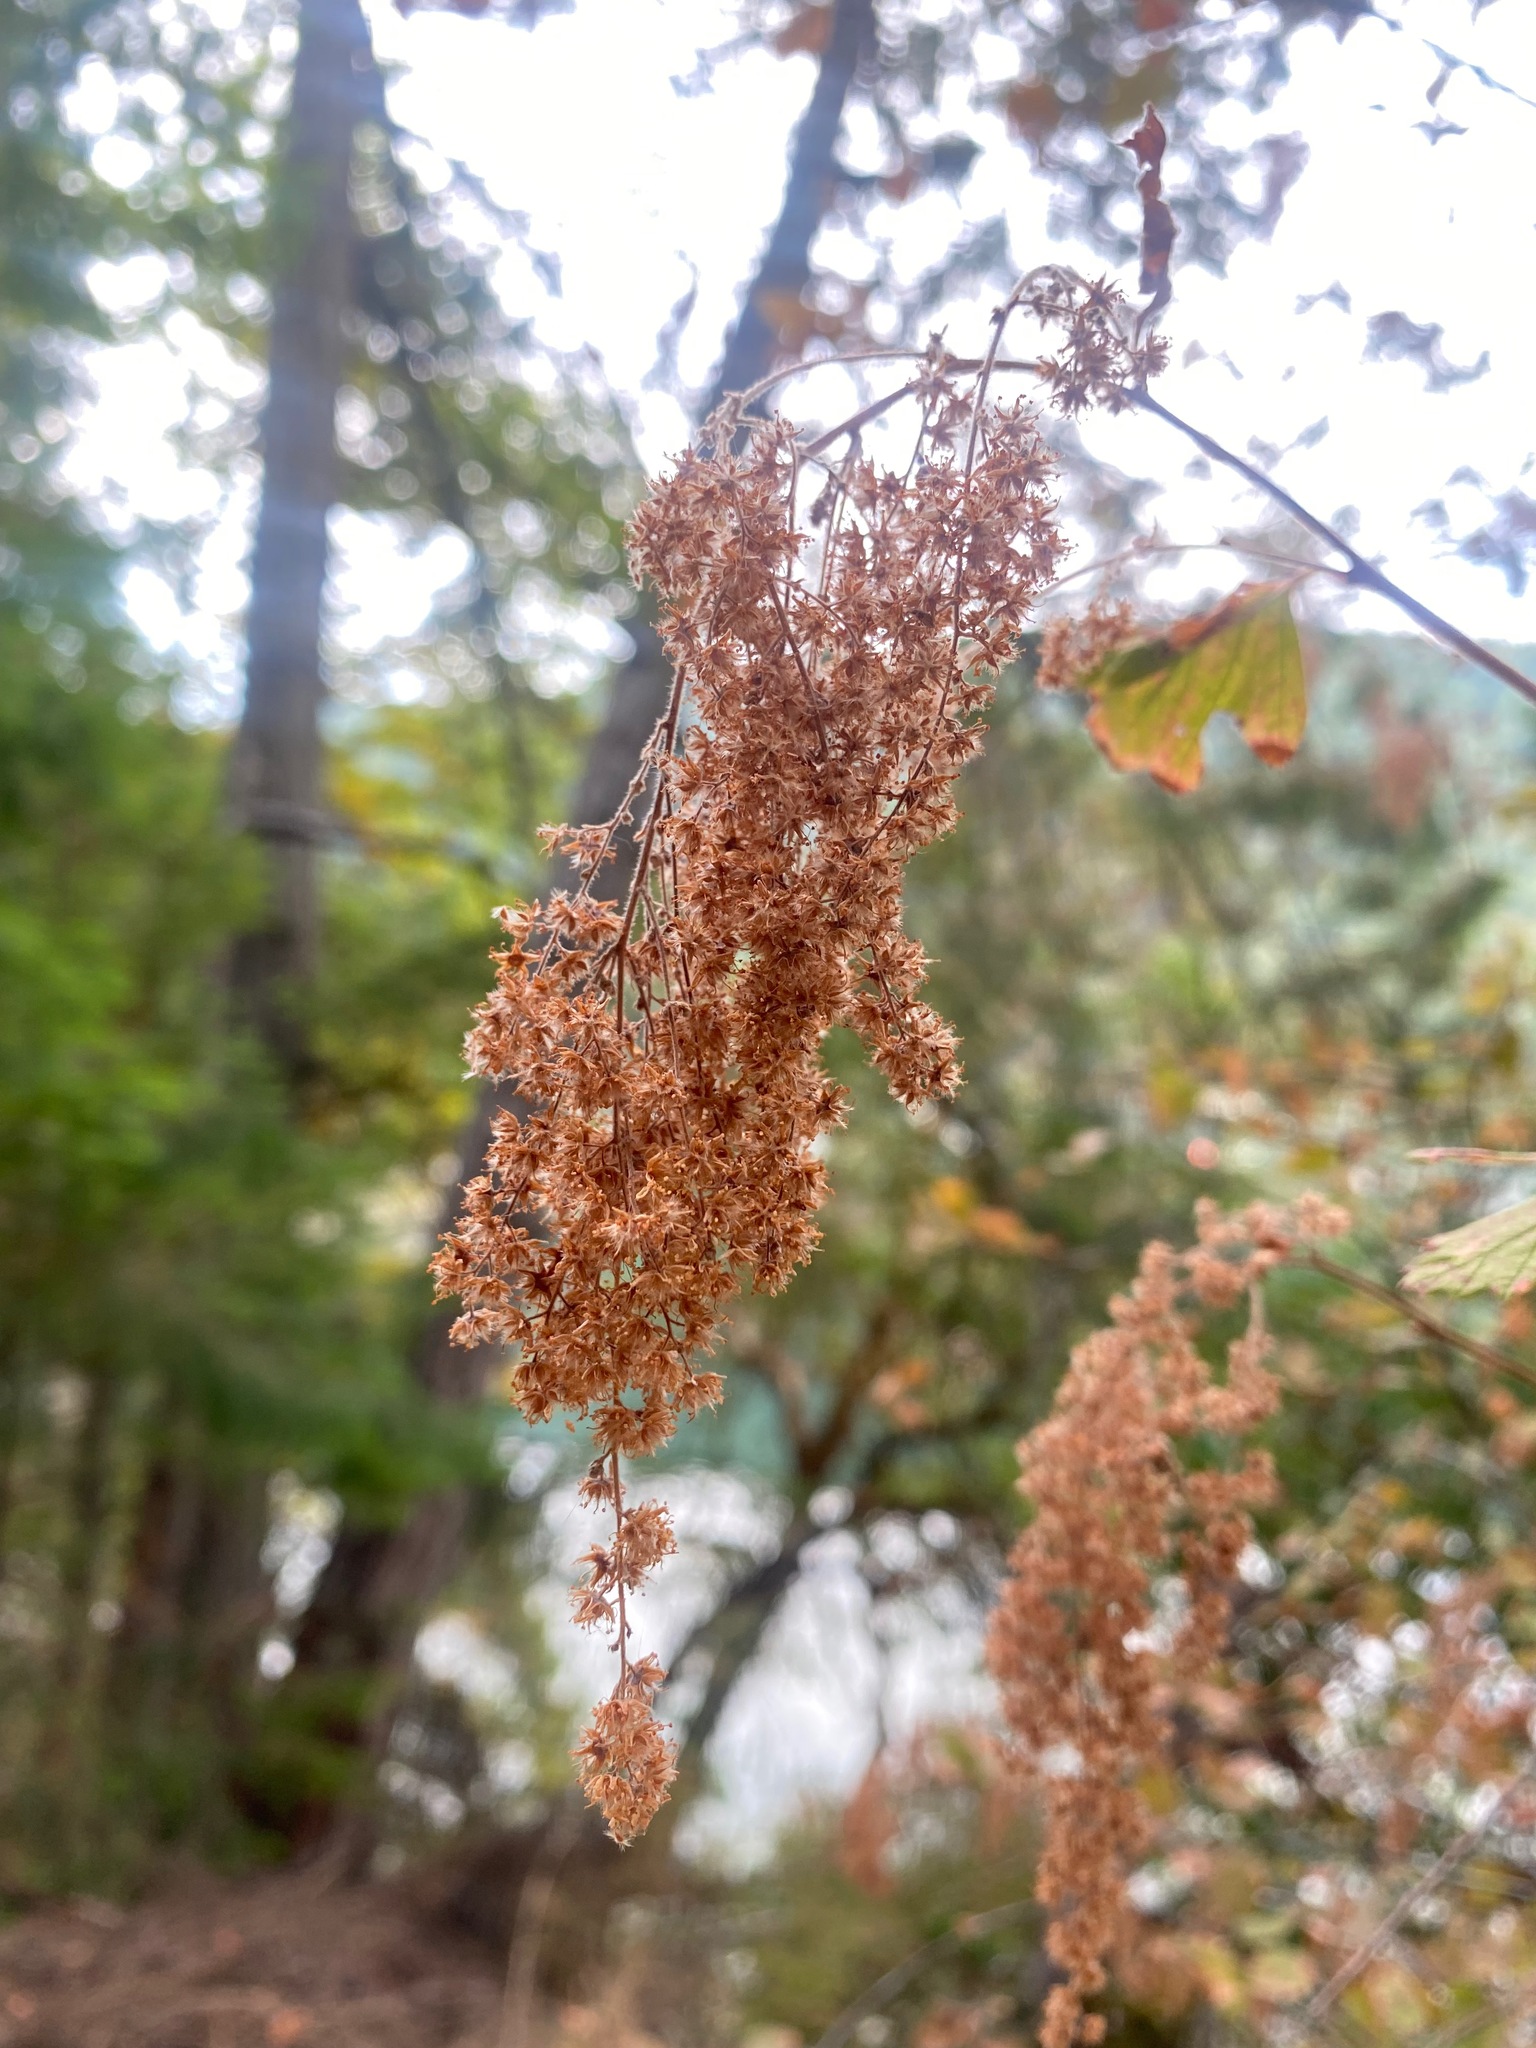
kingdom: Plantae
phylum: Tracheophyta
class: Magnoliopsida
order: Rosales
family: Rosaceae
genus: Holodiscus
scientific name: Holodiscus discolor
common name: Oceanspray
